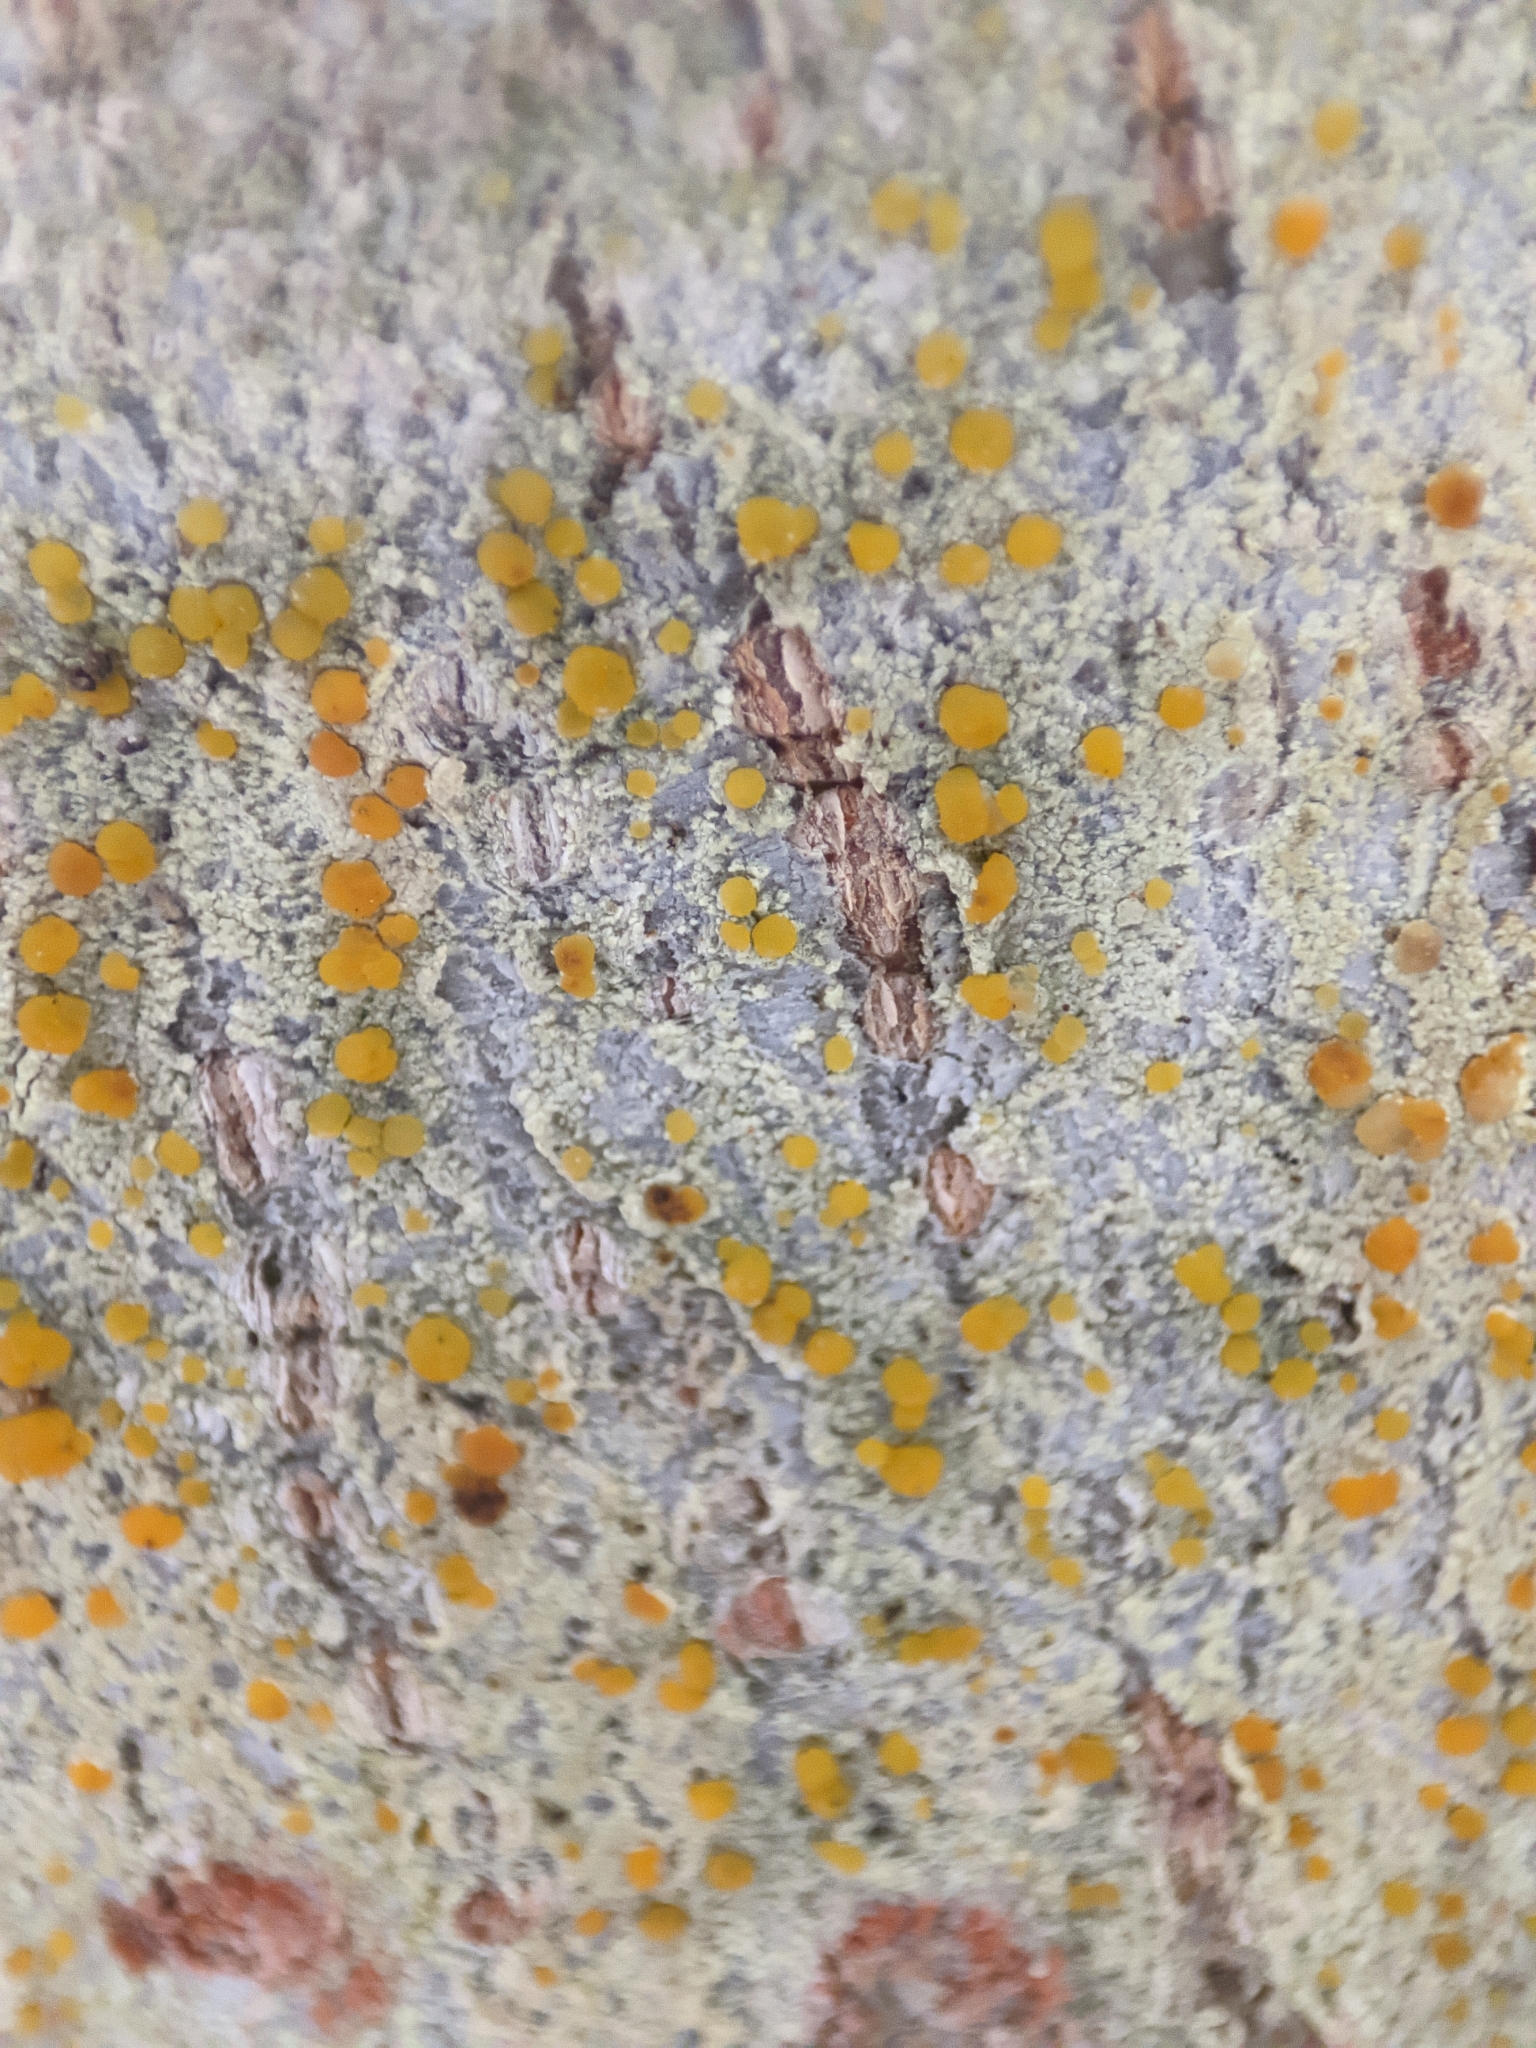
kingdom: Fungi
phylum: Ascomycota
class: Lecanoromycetes
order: Lecanorales
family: Lecanoraceae
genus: Lecanora
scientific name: Lecanora symmicta
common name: Fused rim lichen
